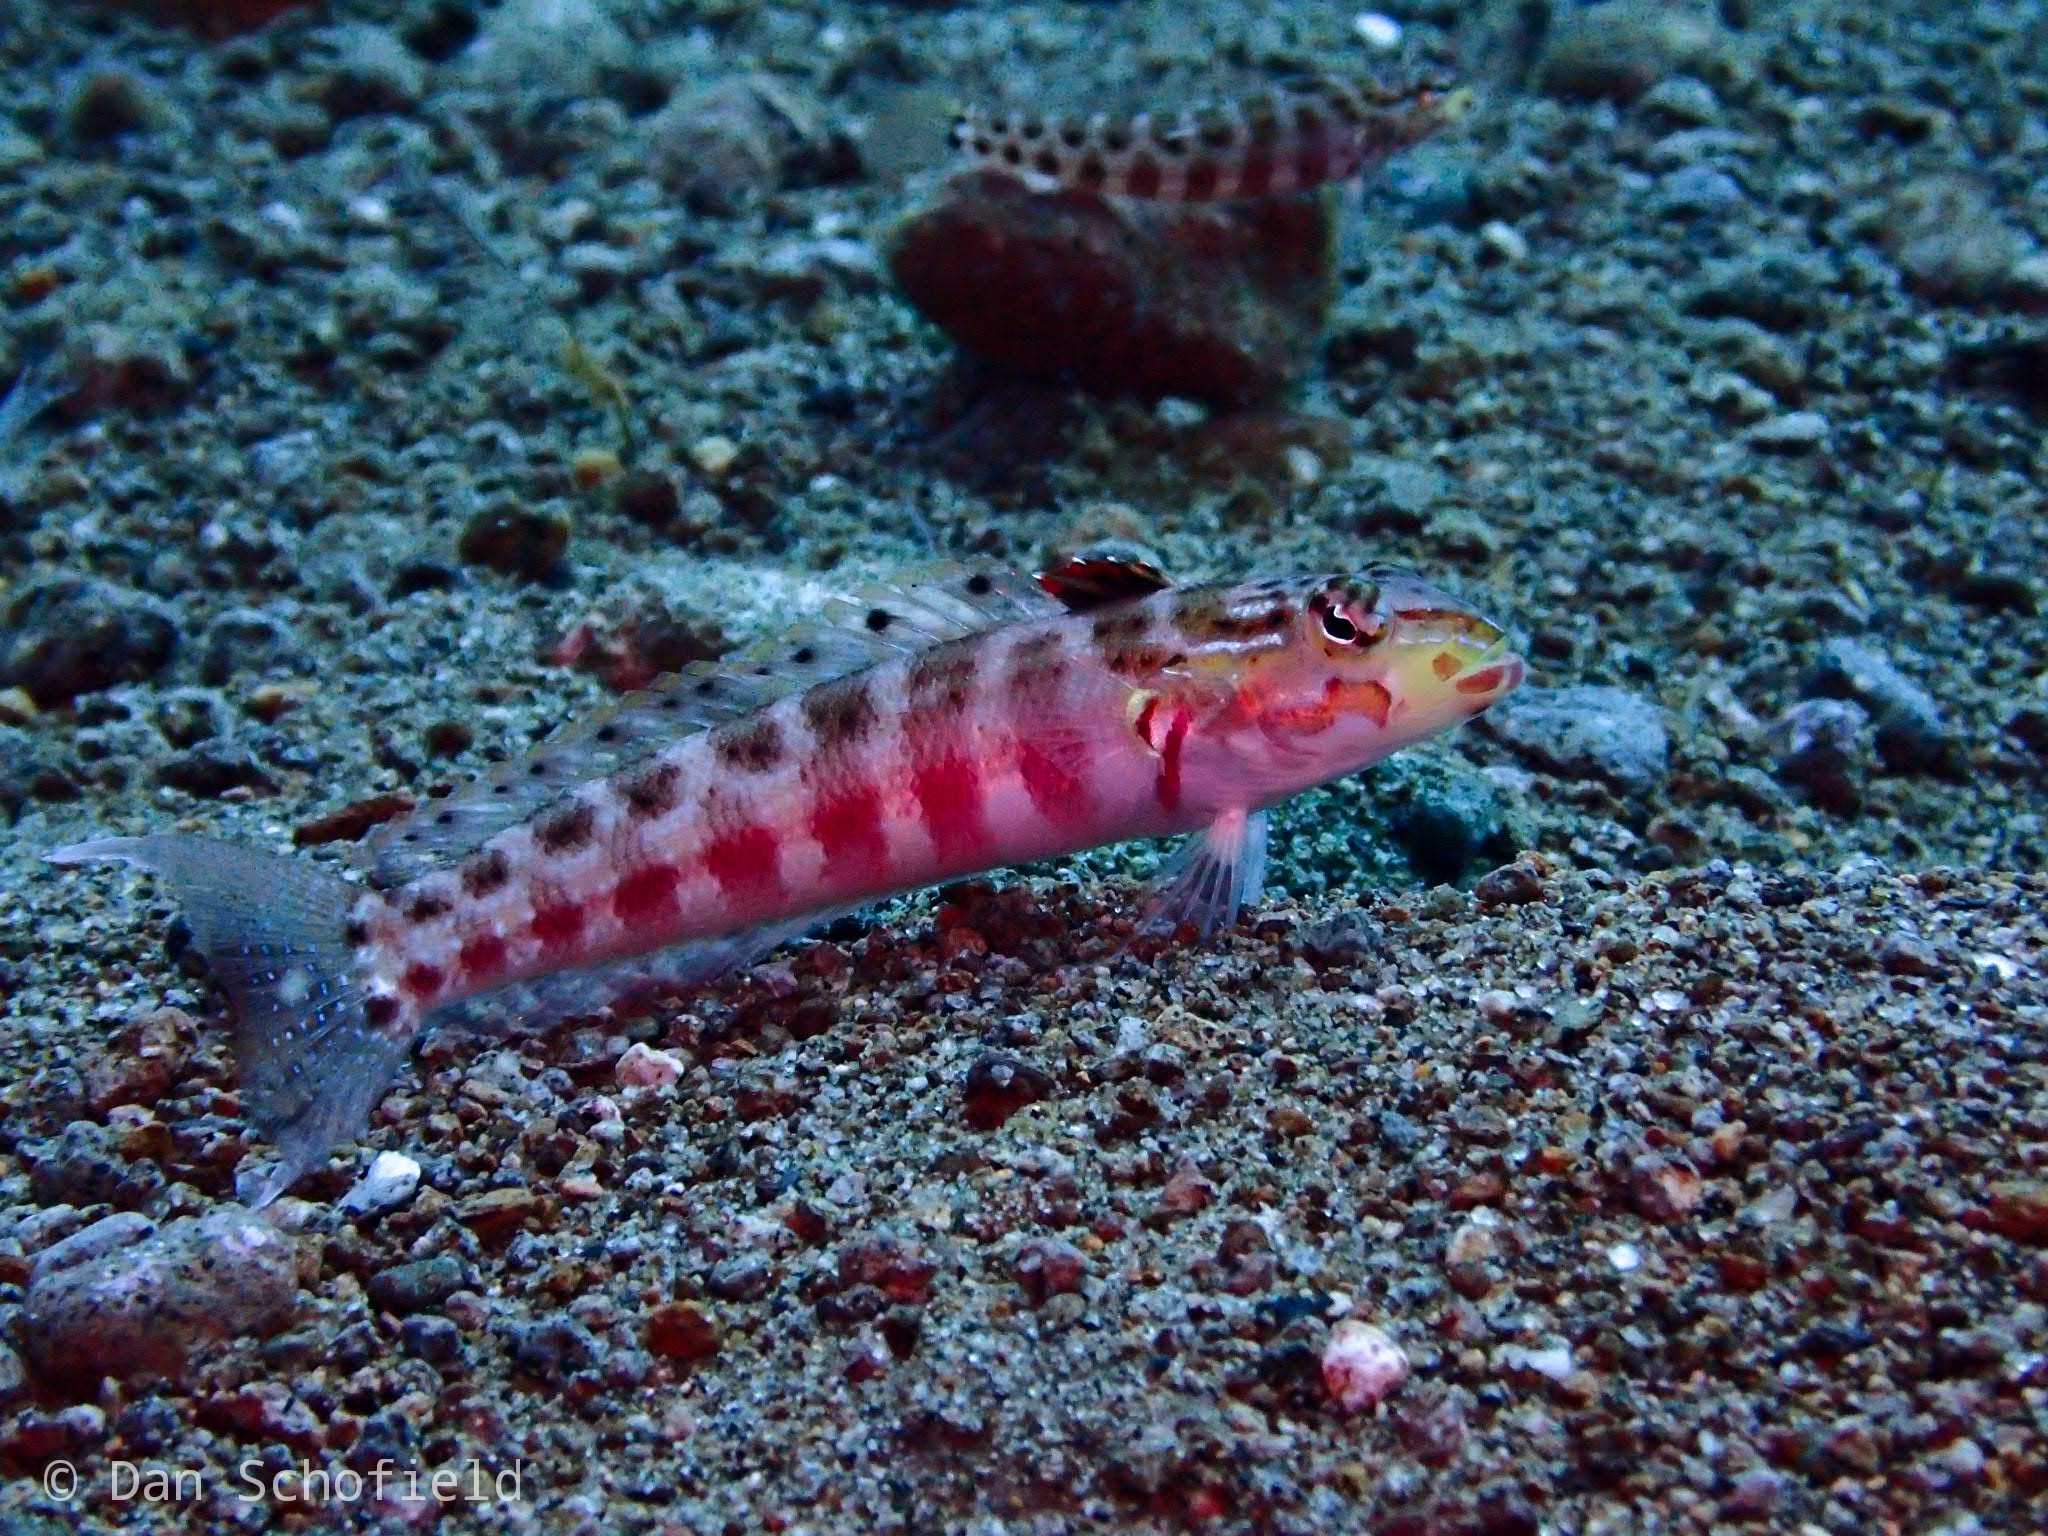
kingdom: Animalia
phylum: Chordata
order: Perciformes
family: Pinguipedidae
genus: Parapercis
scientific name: Parapercis schauinslandii
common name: Redspotted sandperch
